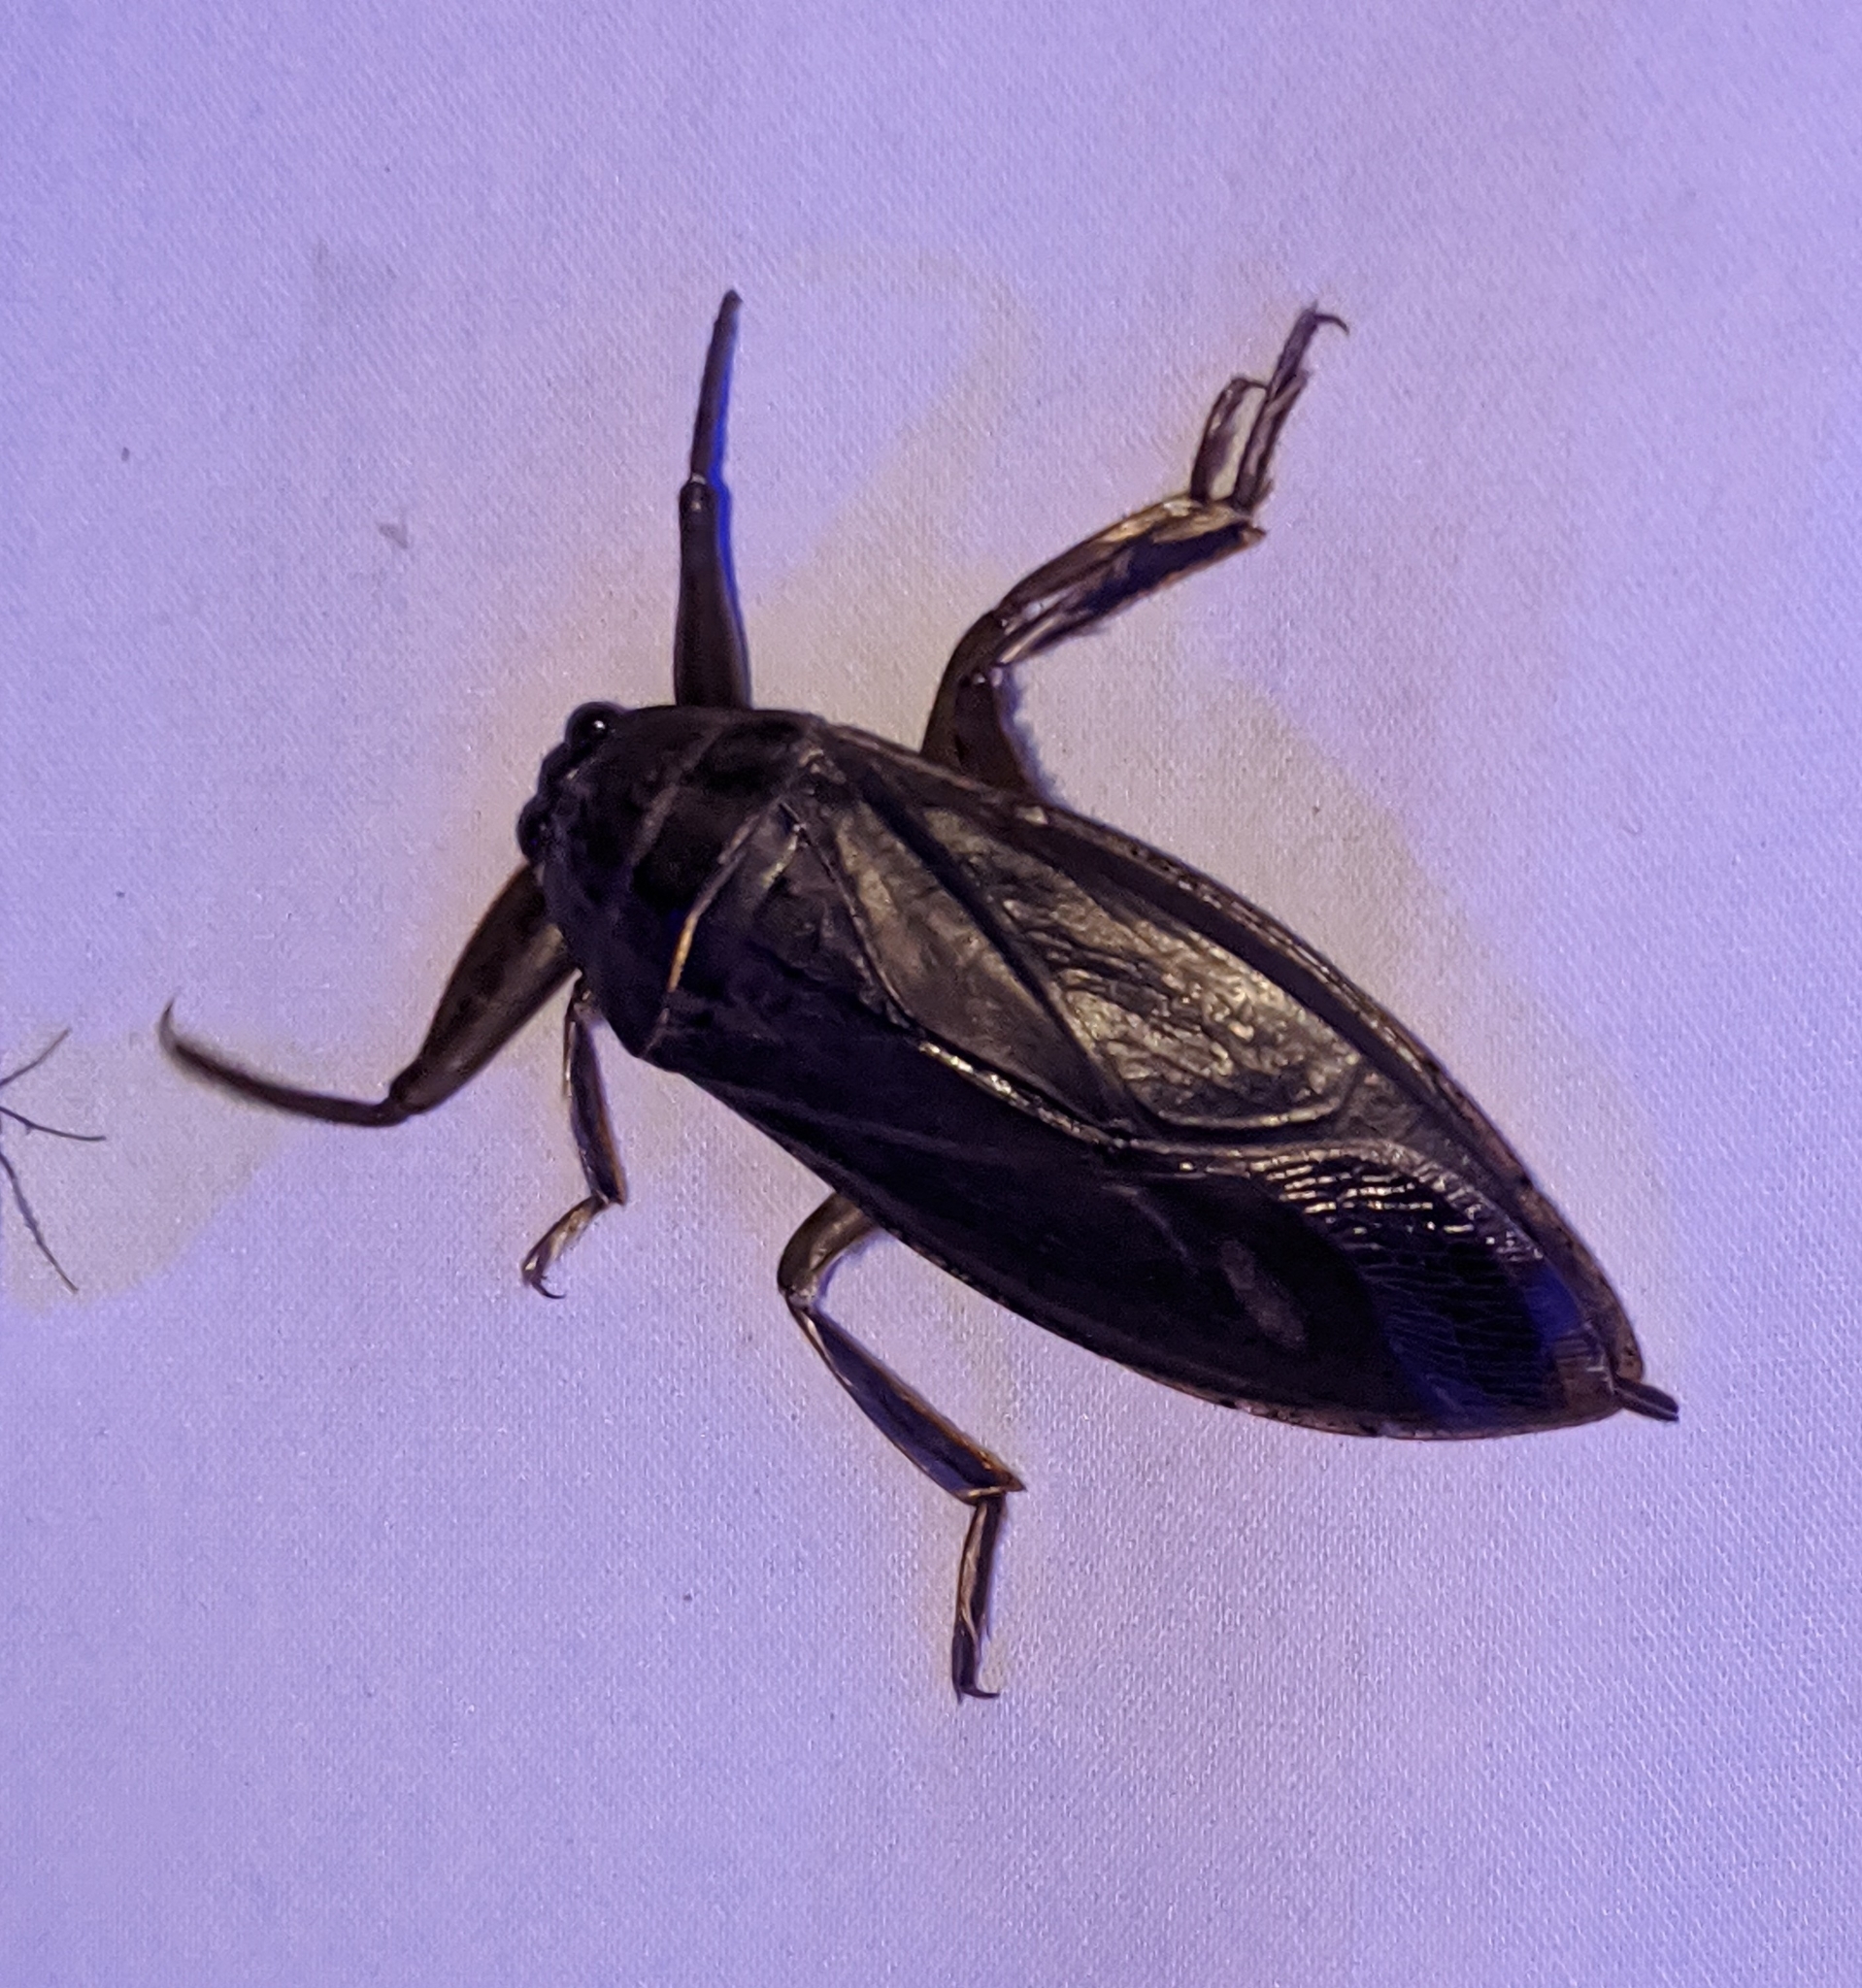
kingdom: Animalia
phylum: Arthropoda
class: Insecta
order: Hemiptera
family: Belostomatidae
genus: Lethocerus
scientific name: Lethocerus americanus
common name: Giant water bug
